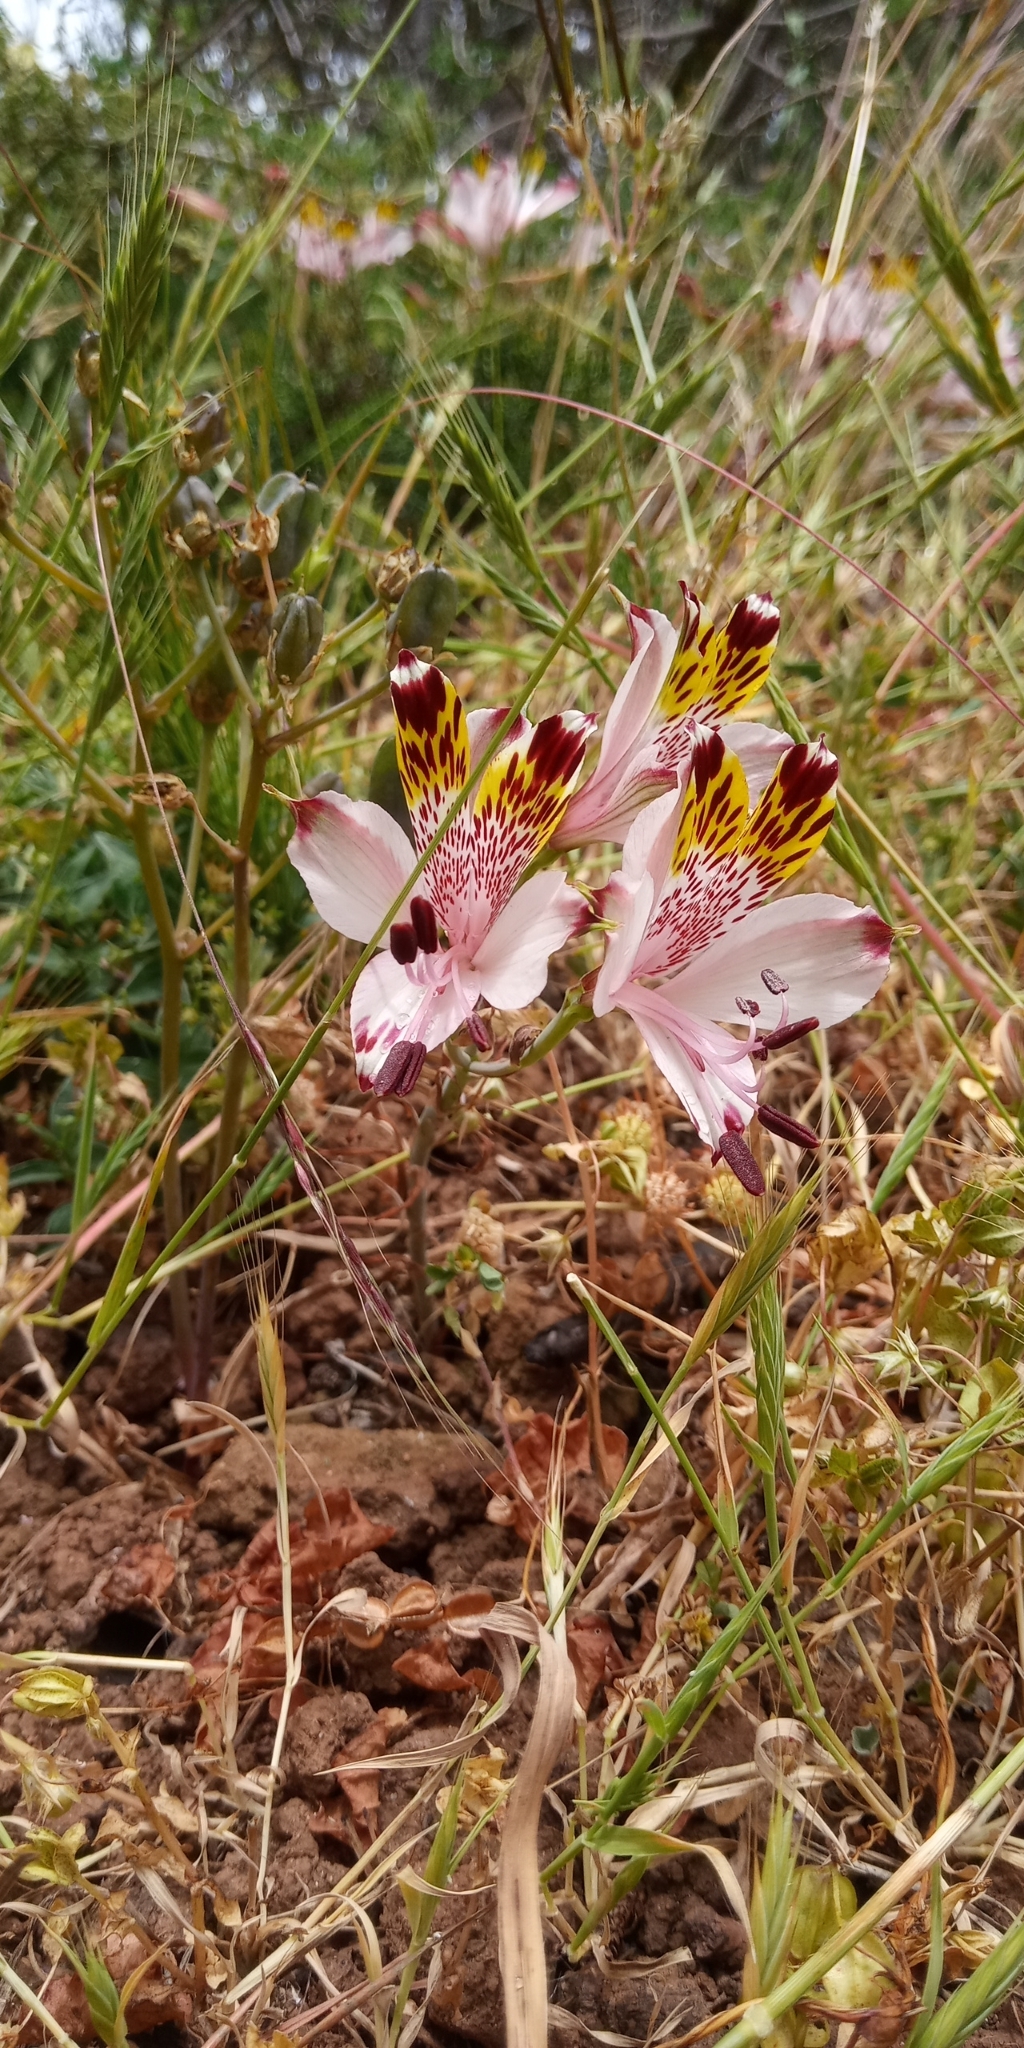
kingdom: Plantae
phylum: Tracheophyta
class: Liliopsida
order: Liliales
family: Alstroemeriaceae
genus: Alstroemeria
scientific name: Alstroemeria pulchra
